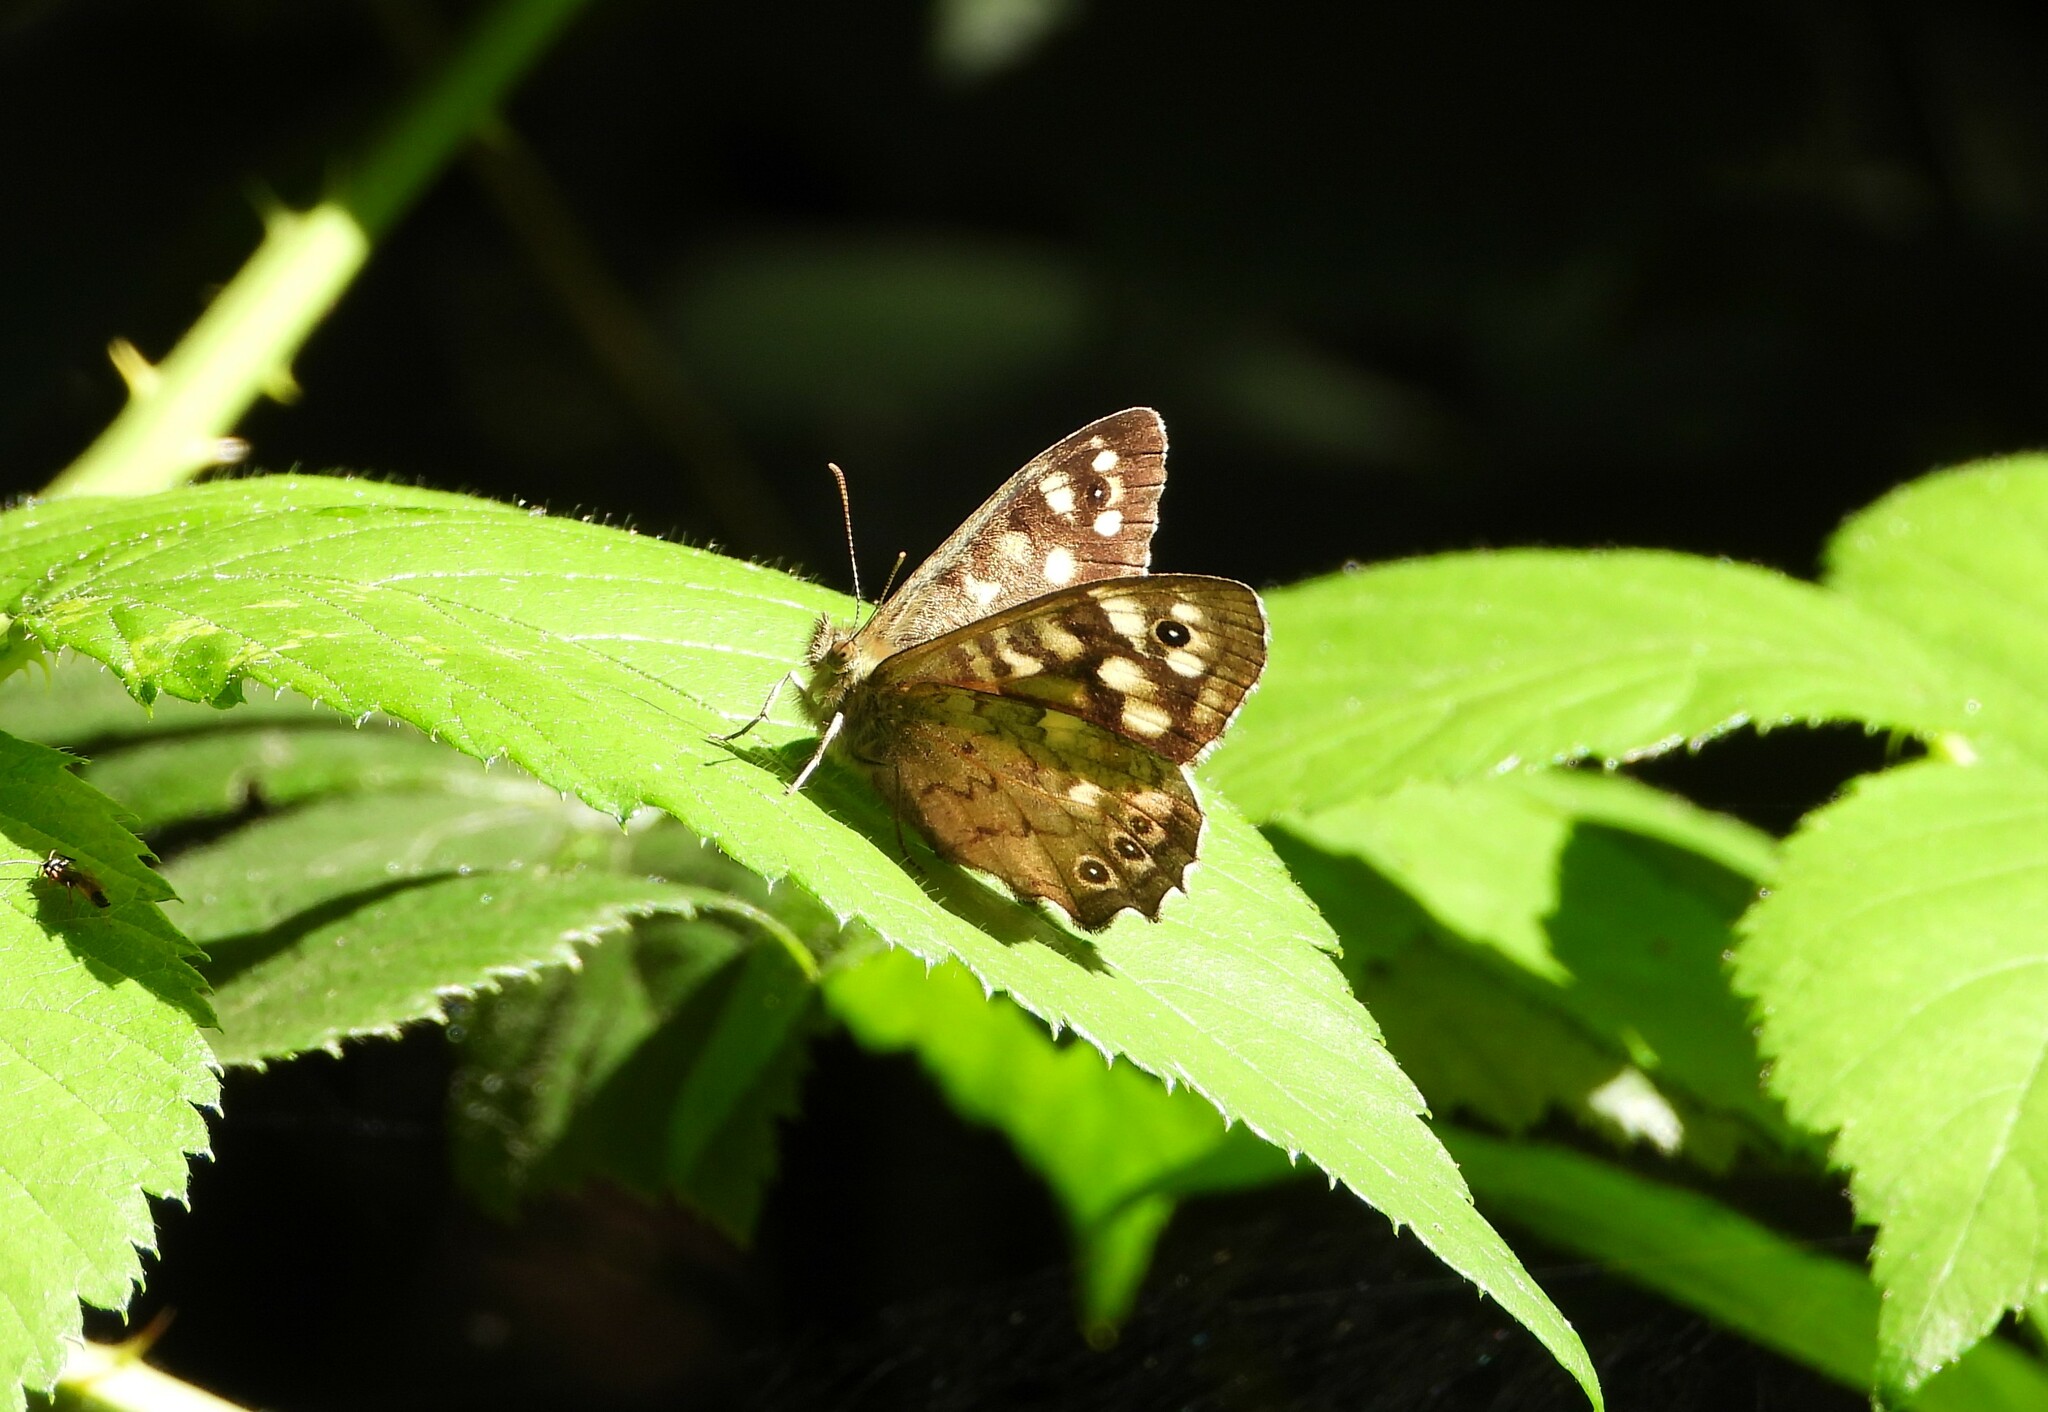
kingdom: Animalia
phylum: Arthropoda
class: Insecta
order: Lepidoptera
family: Nymphalidae
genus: Pararge
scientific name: Pararge aegeria
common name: Speckled wood
